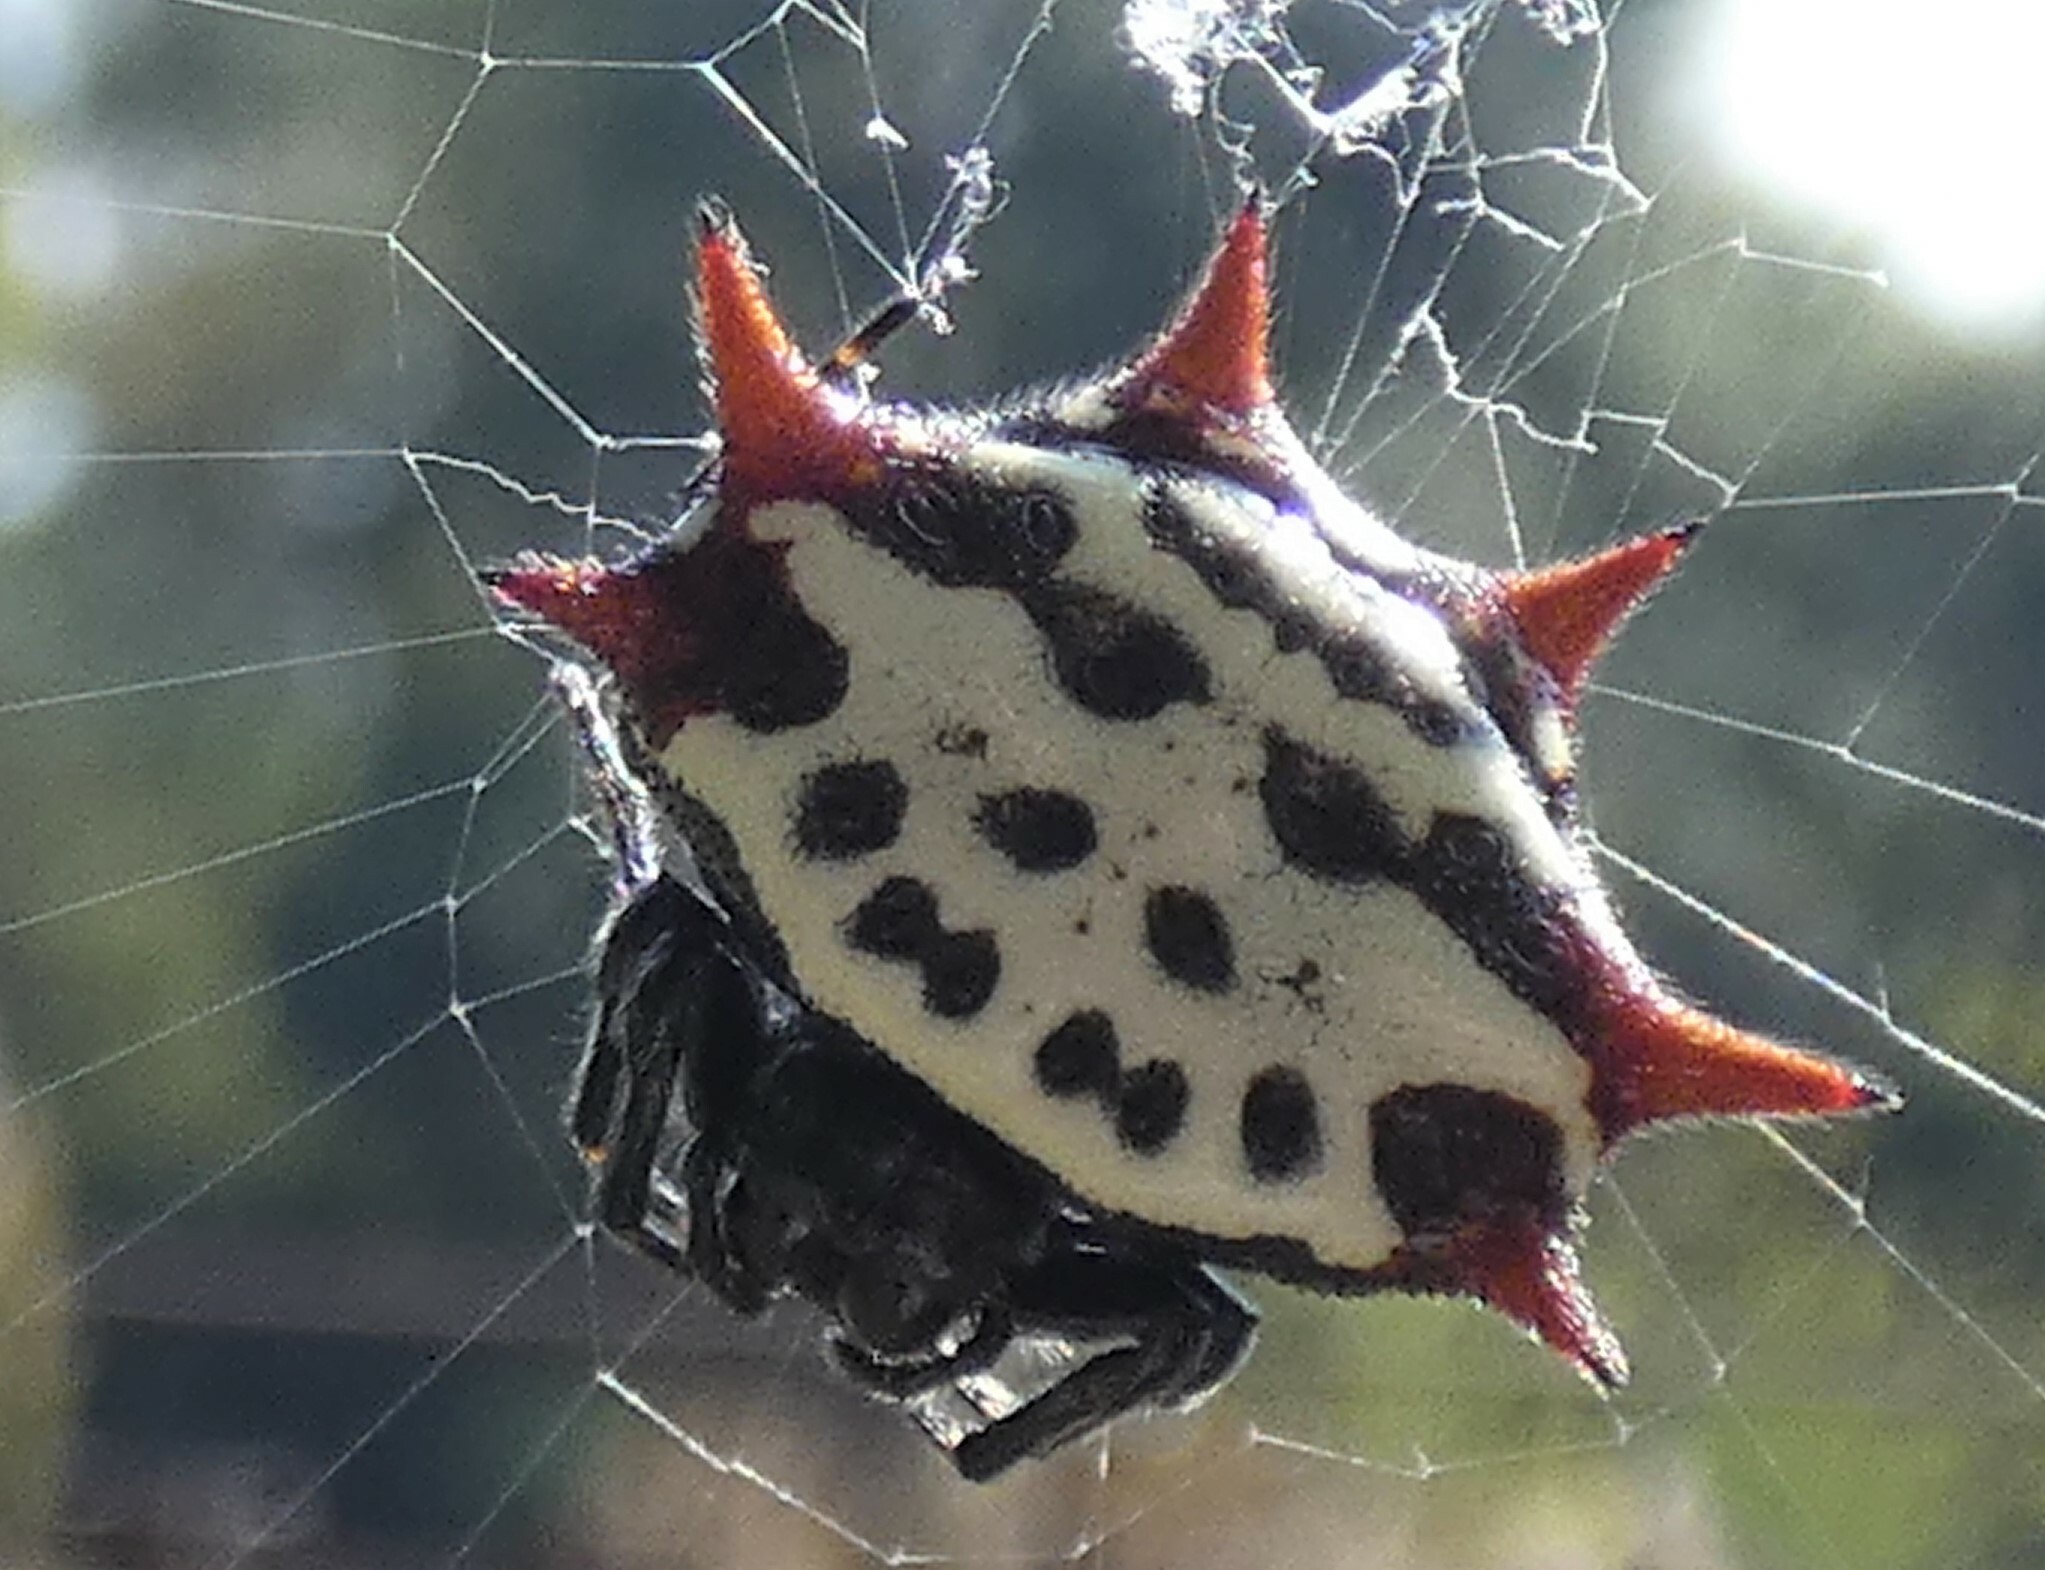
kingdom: Animalia
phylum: Arthropoda
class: Arachnida
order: Araneae
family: Araneidae
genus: Gasteracantha
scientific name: Gasteracantha cancriformis
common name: Orb weavers
